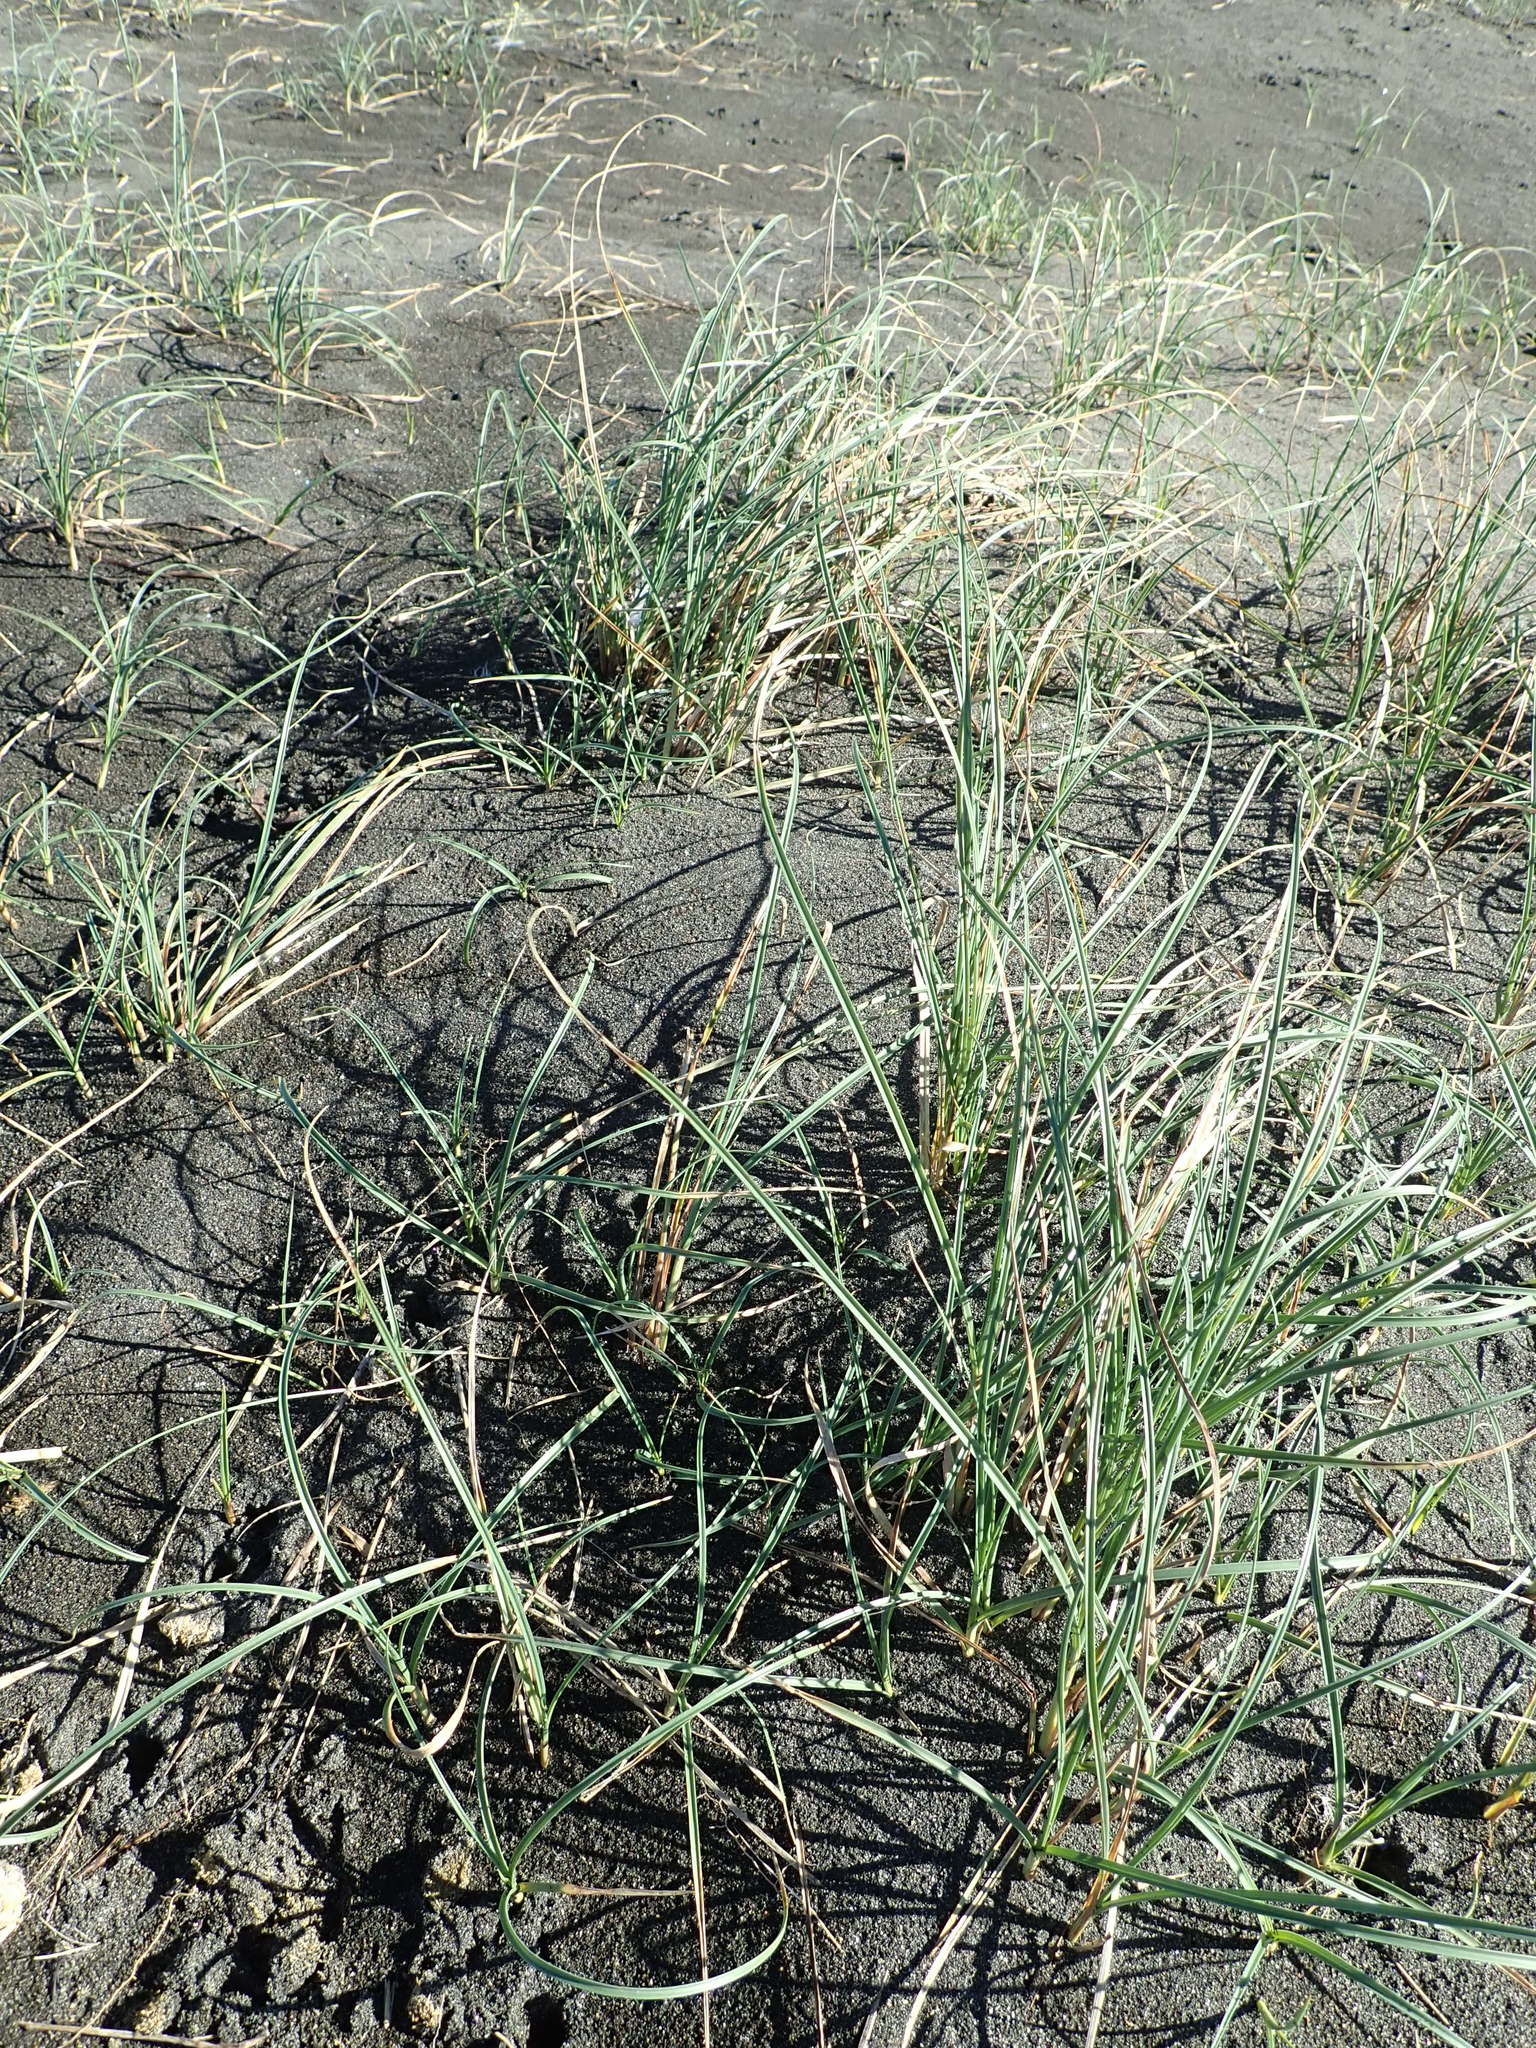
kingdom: Plantae
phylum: Tracheophyta
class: Liliopsida
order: Poales
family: Cyperaceae
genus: Carex
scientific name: Carex pumila
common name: Dwarf sedge
